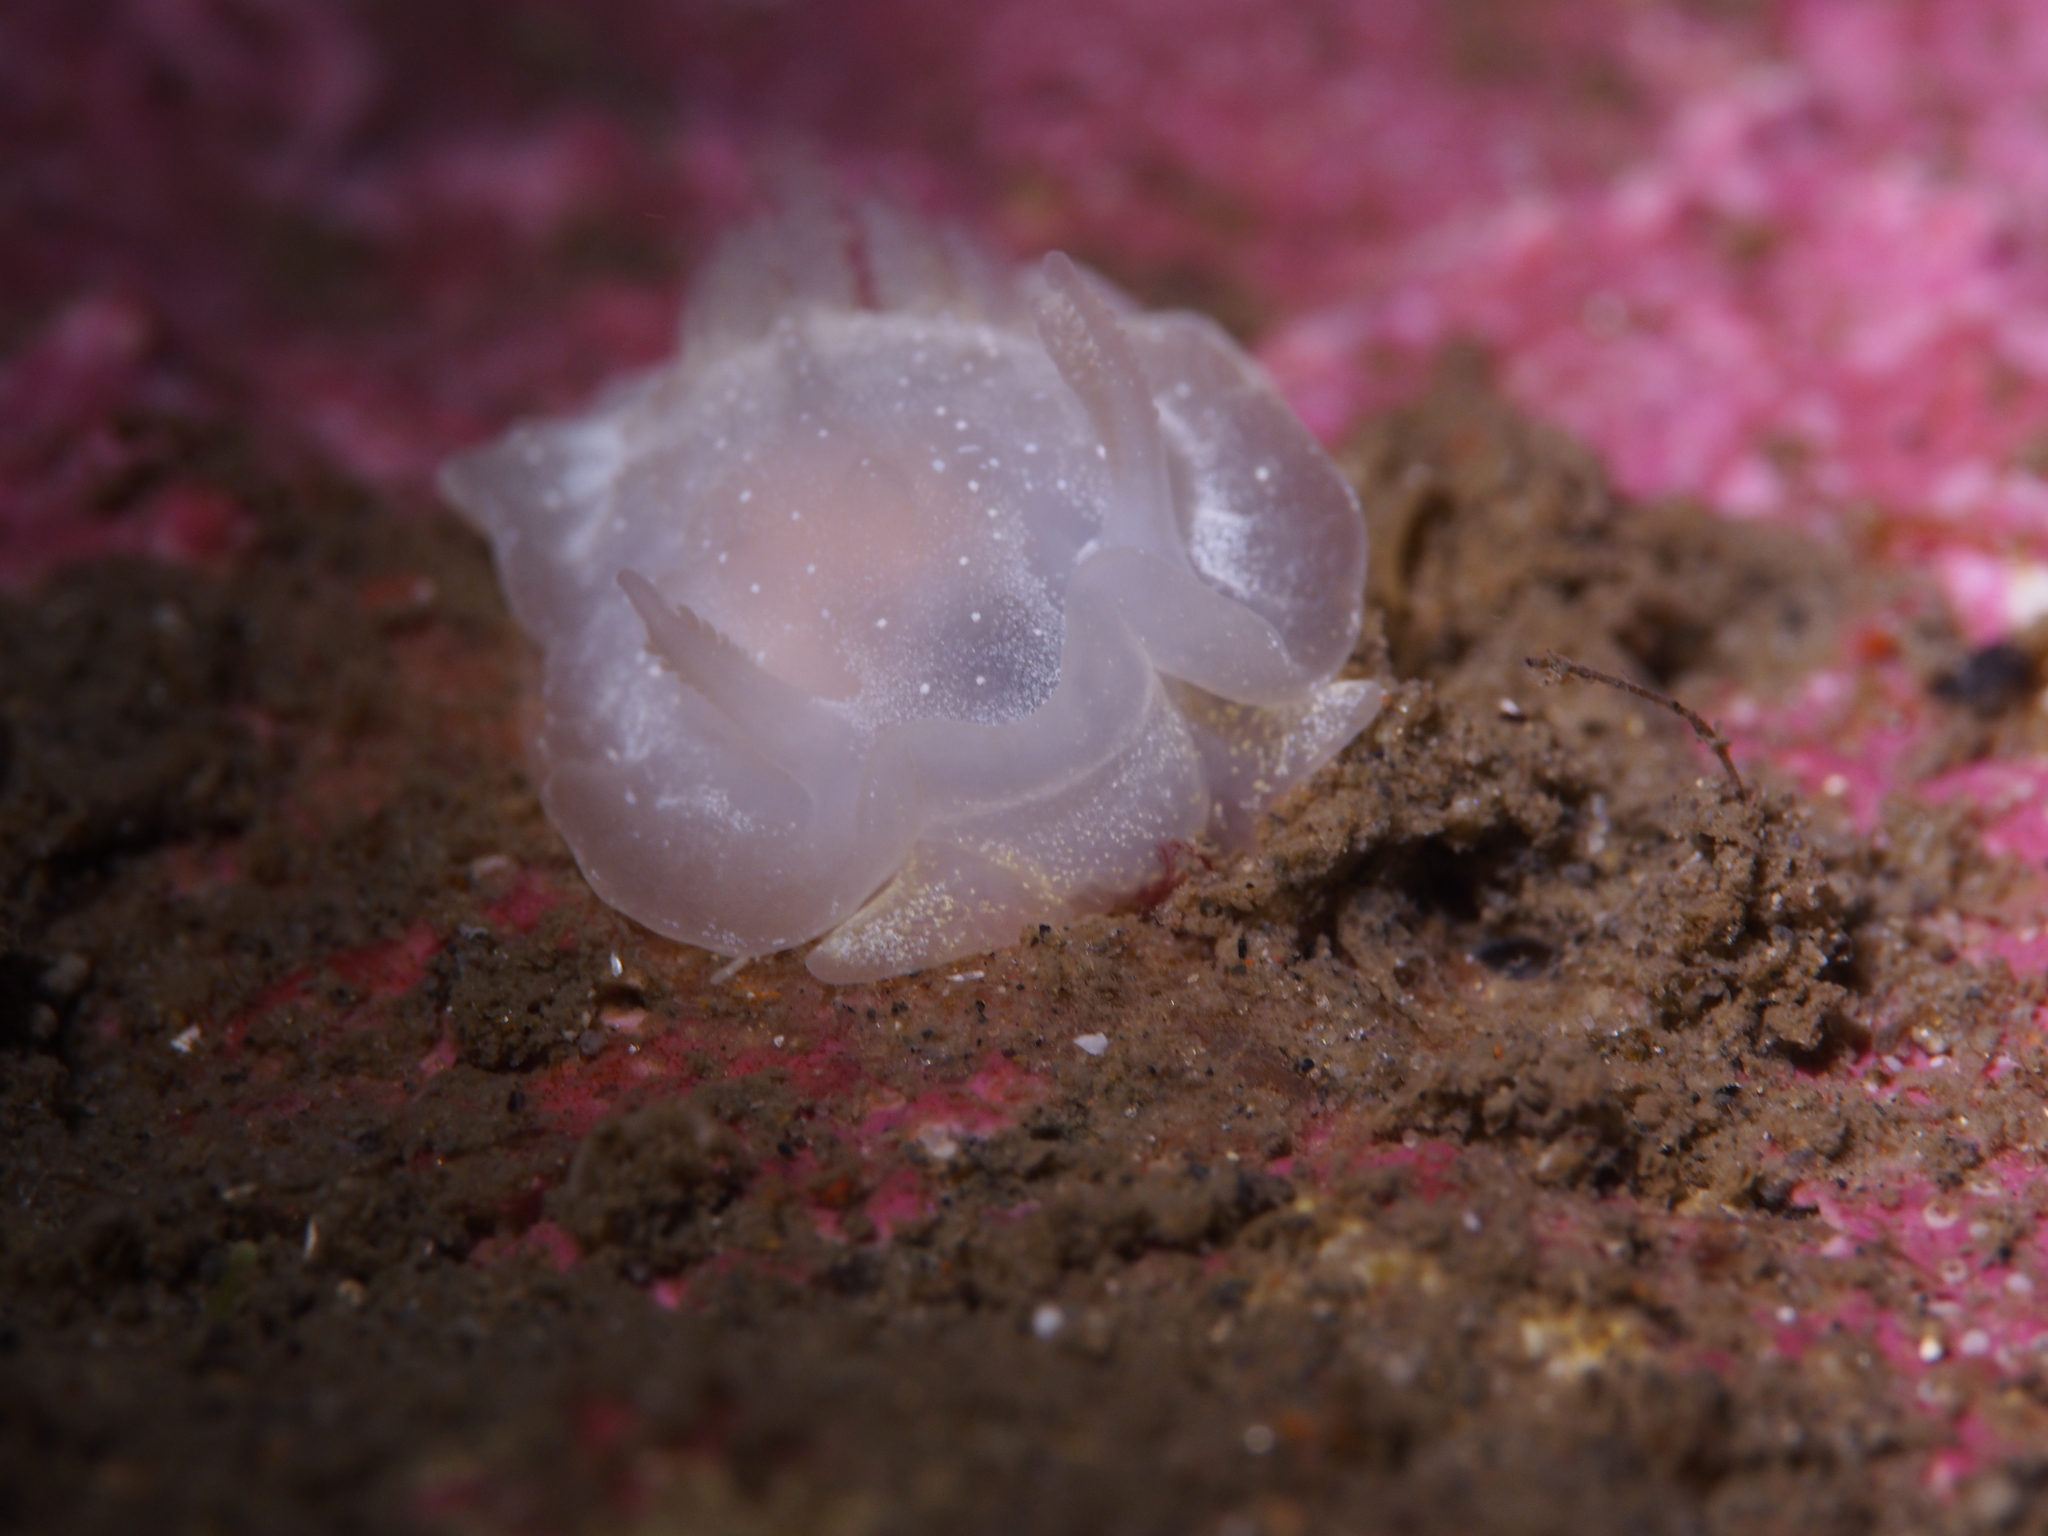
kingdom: Animalia
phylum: Mollusca
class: Gastropoda
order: Nudibranchia
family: Goniodorididae
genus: Okenia
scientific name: Okenia
